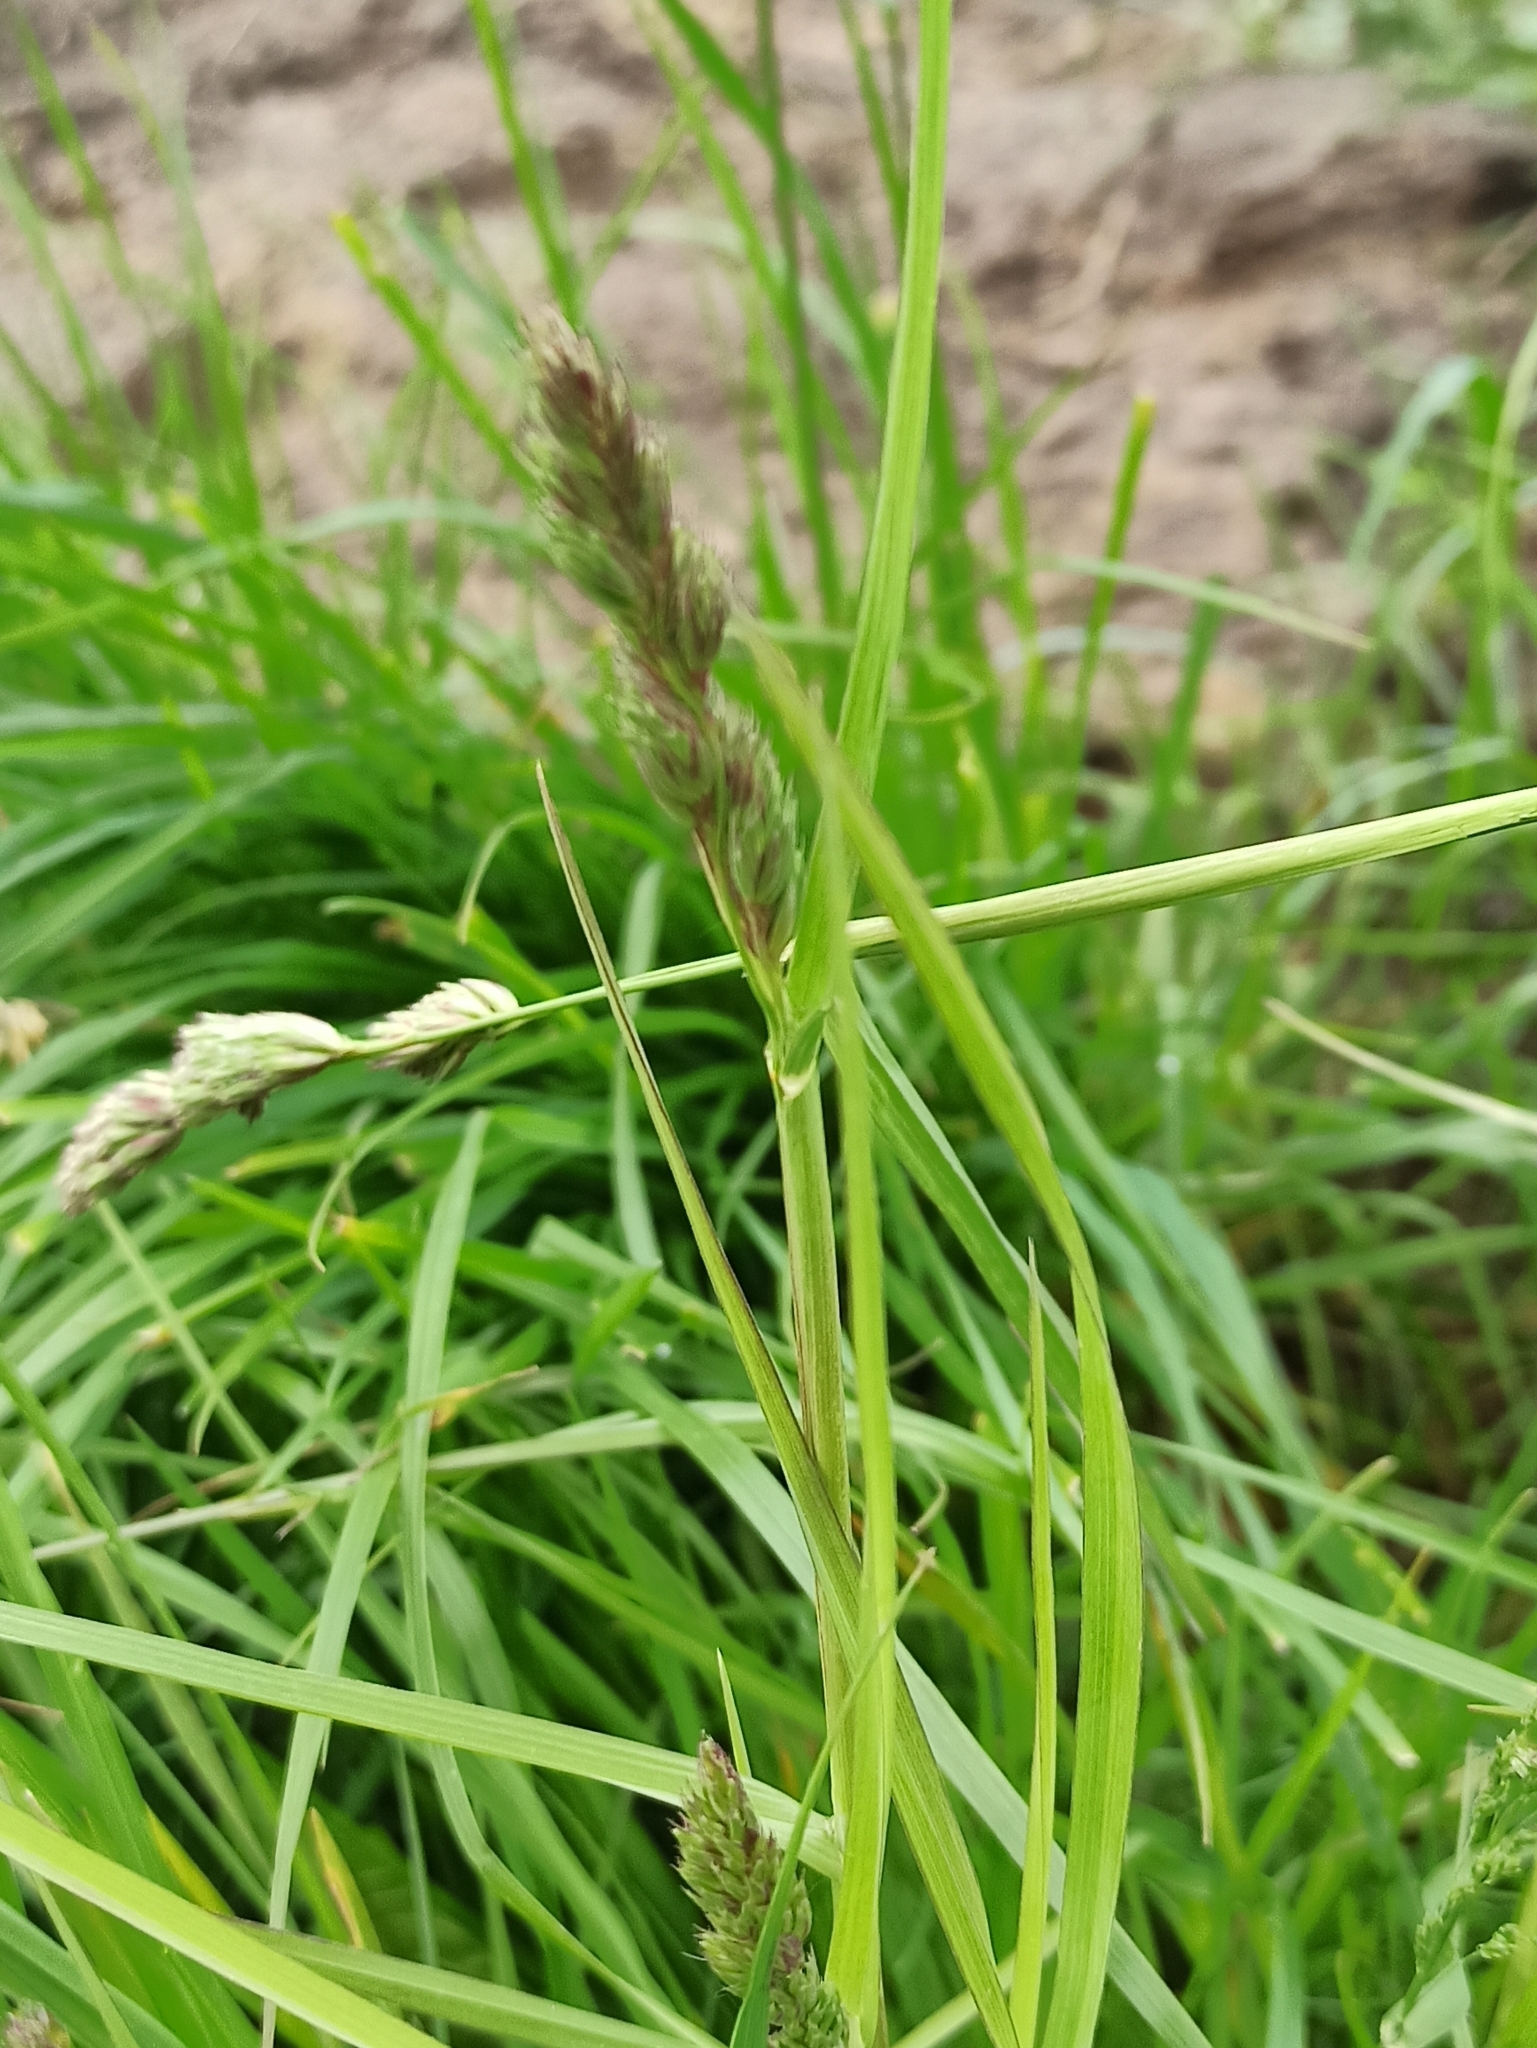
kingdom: Plantae
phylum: Tracheophyta
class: Liliopsida
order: Poales
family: Poaceae
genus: Dactylis
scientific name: Dactylis glomerata
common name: Orchardgrass
